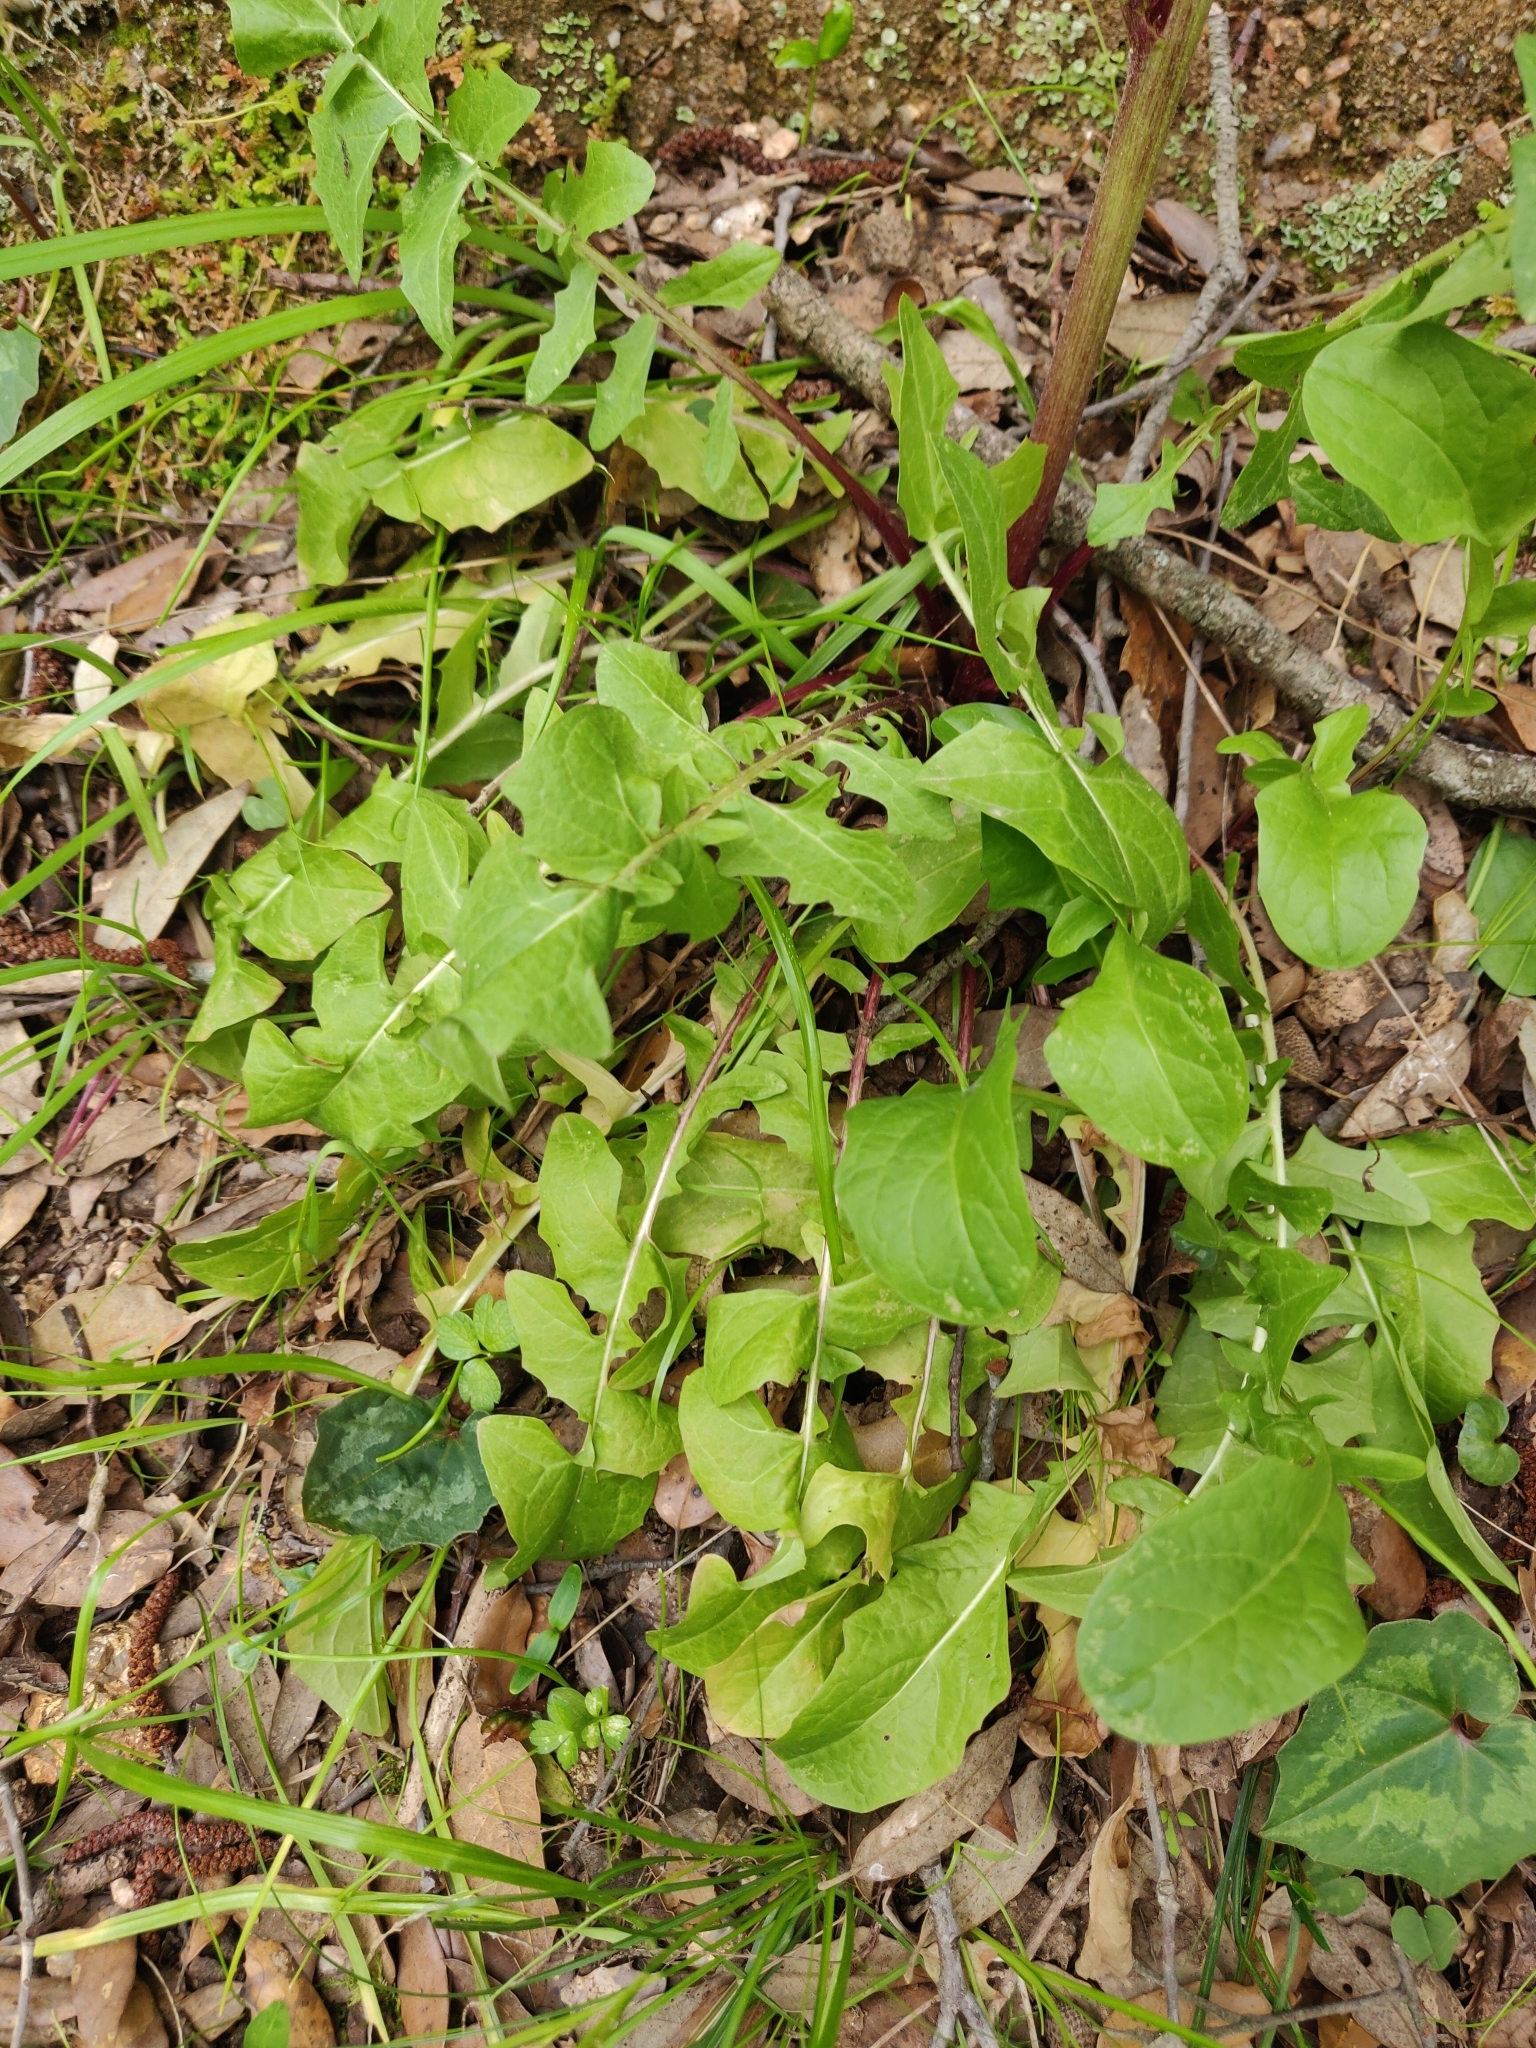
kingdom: Plantae
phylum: Tracheophyta
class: Magnoliopsida
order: Asterales
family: Asteraceae
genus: Crepis
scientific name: Crepis vesicaria
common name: Beaked hawksbeard
